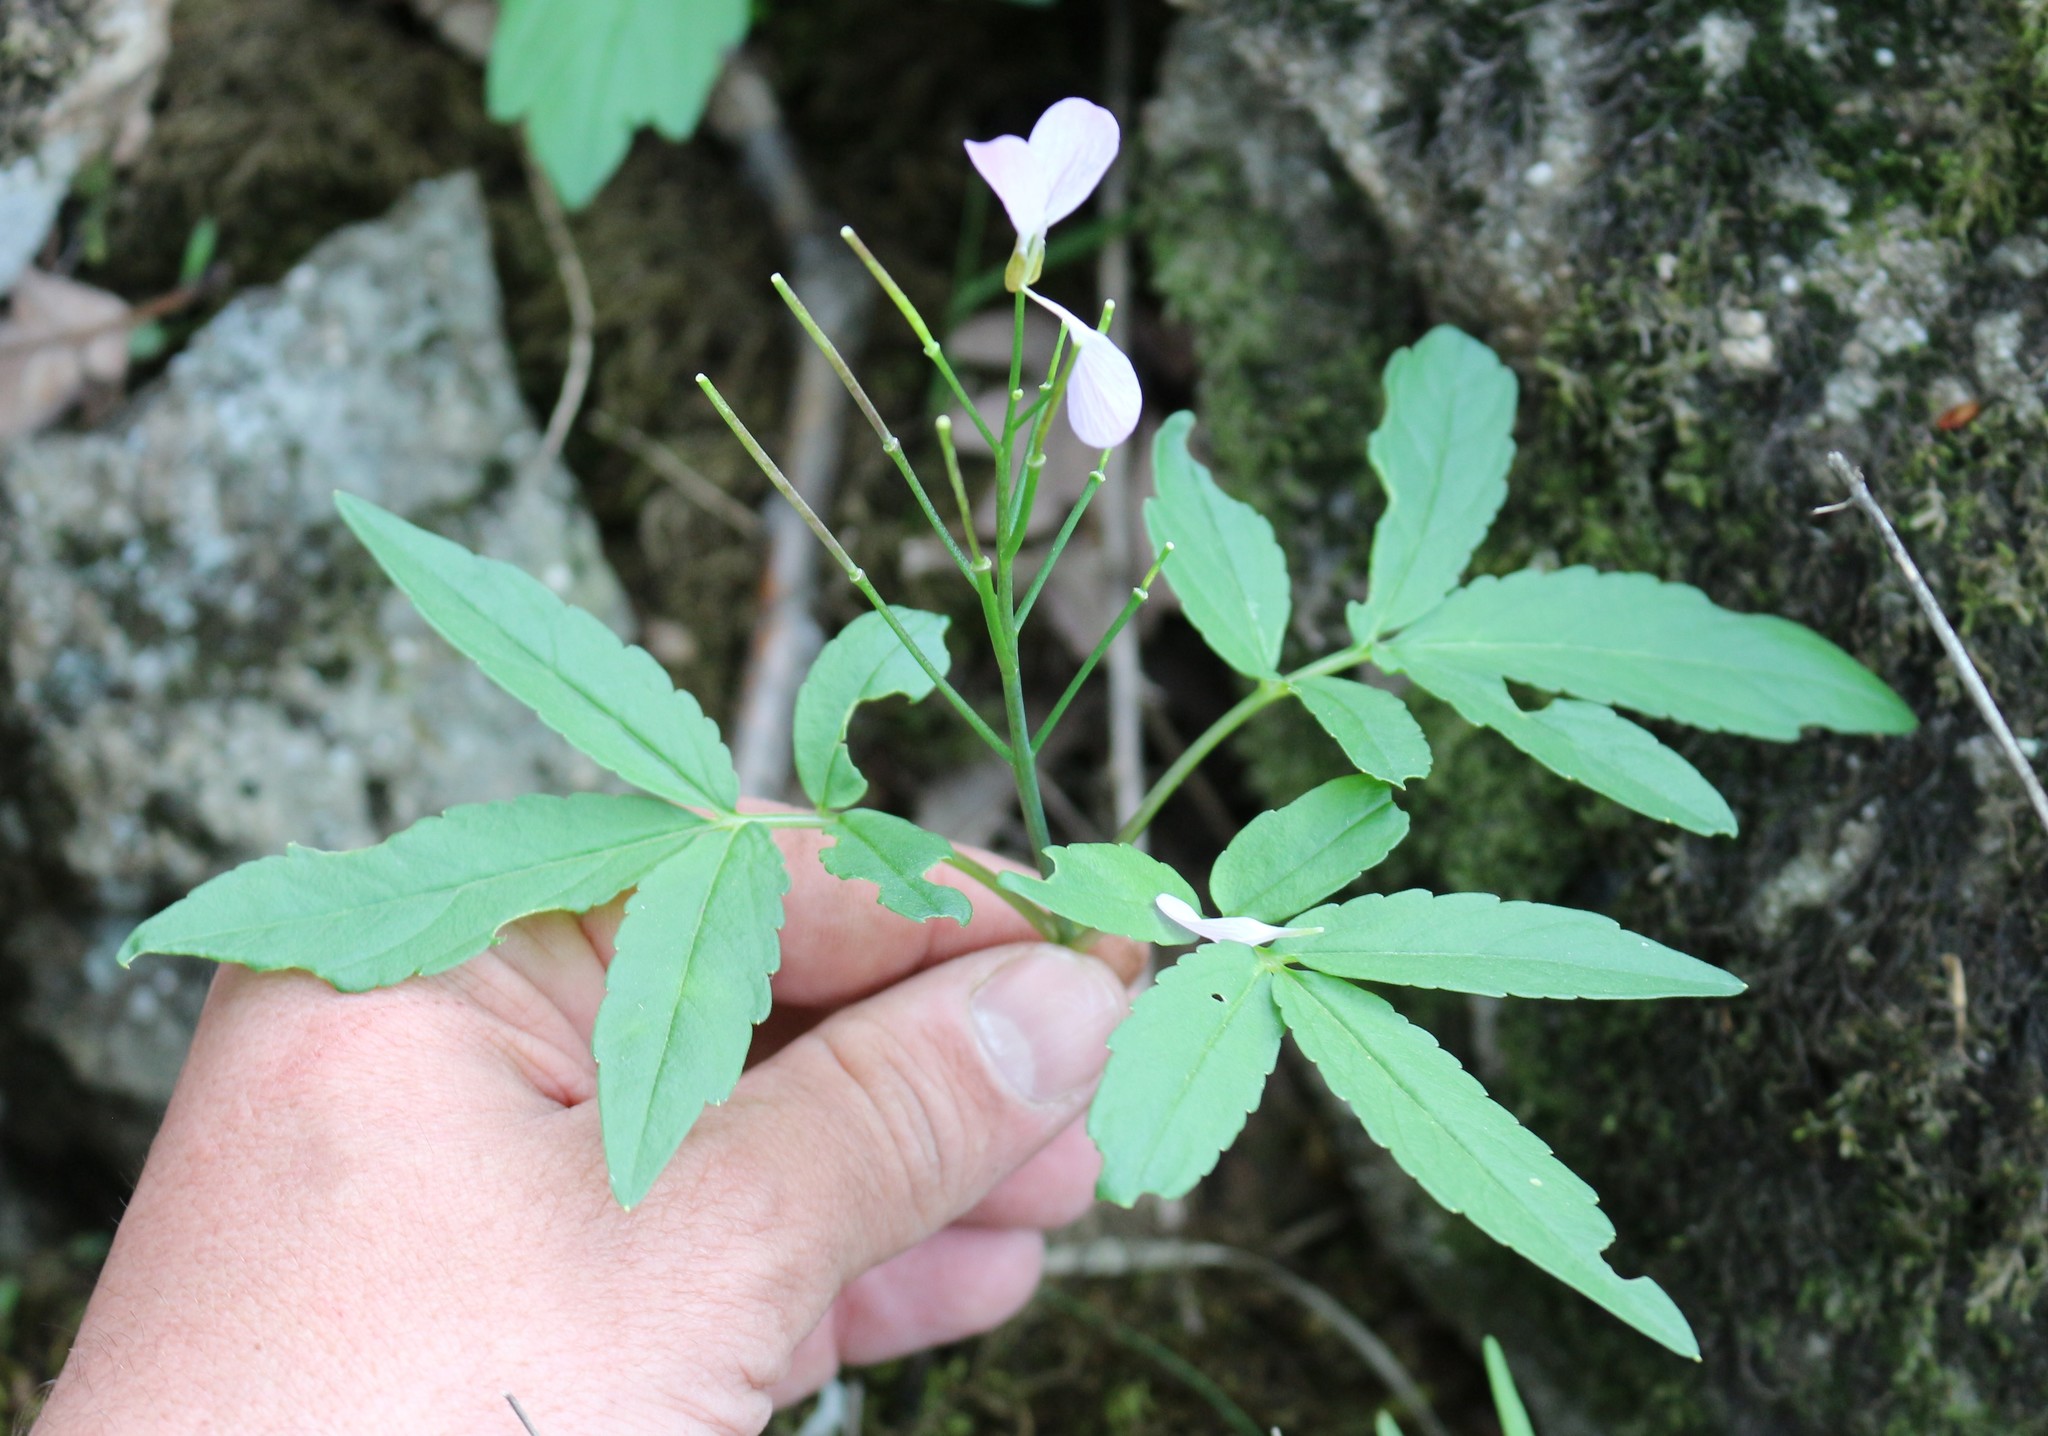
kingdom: Plantae
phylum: Tracheophyta
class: Magnoliopsida
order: Brassicales
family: Brassicaceae
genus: Cardamine
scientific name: Cardamine quinquefolia
